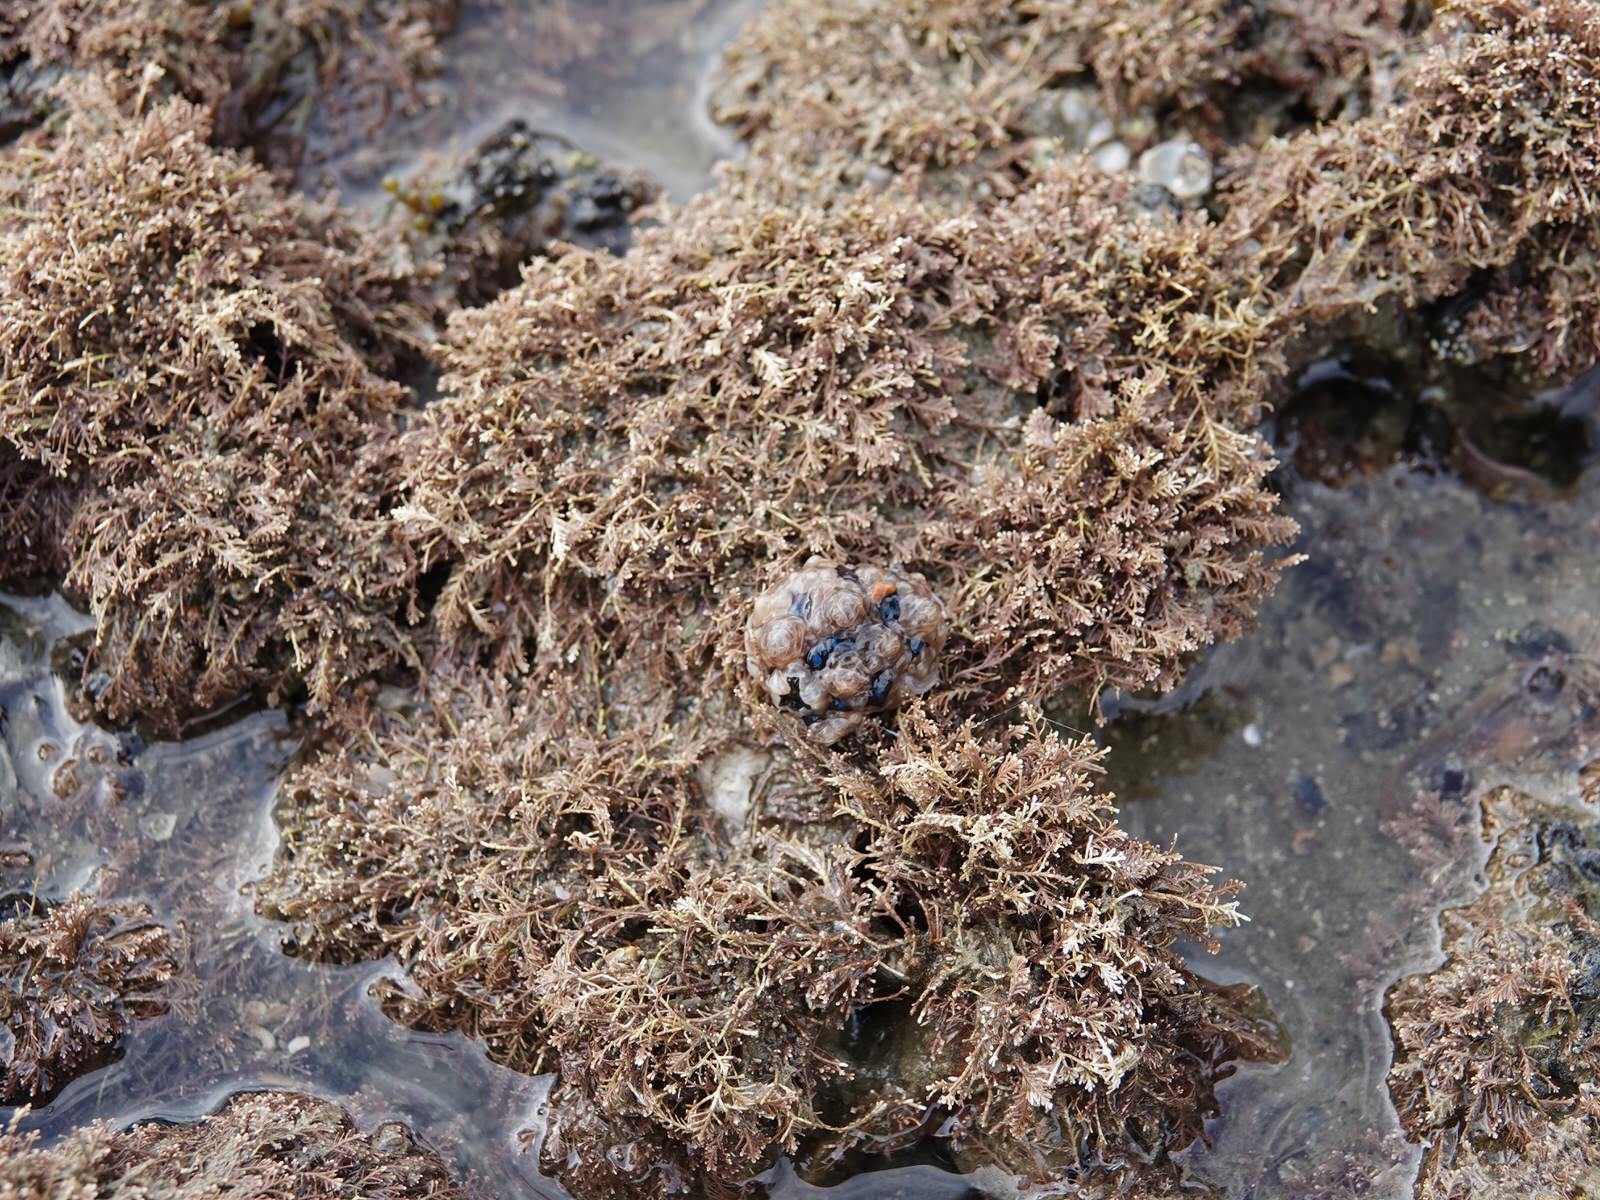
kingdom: Animalia
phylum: Mollusca
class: Gastropoda
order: Nudibranchia
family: Dendrodorididae
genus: Dendrodoris
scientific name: Dendrodoris krusensternii
